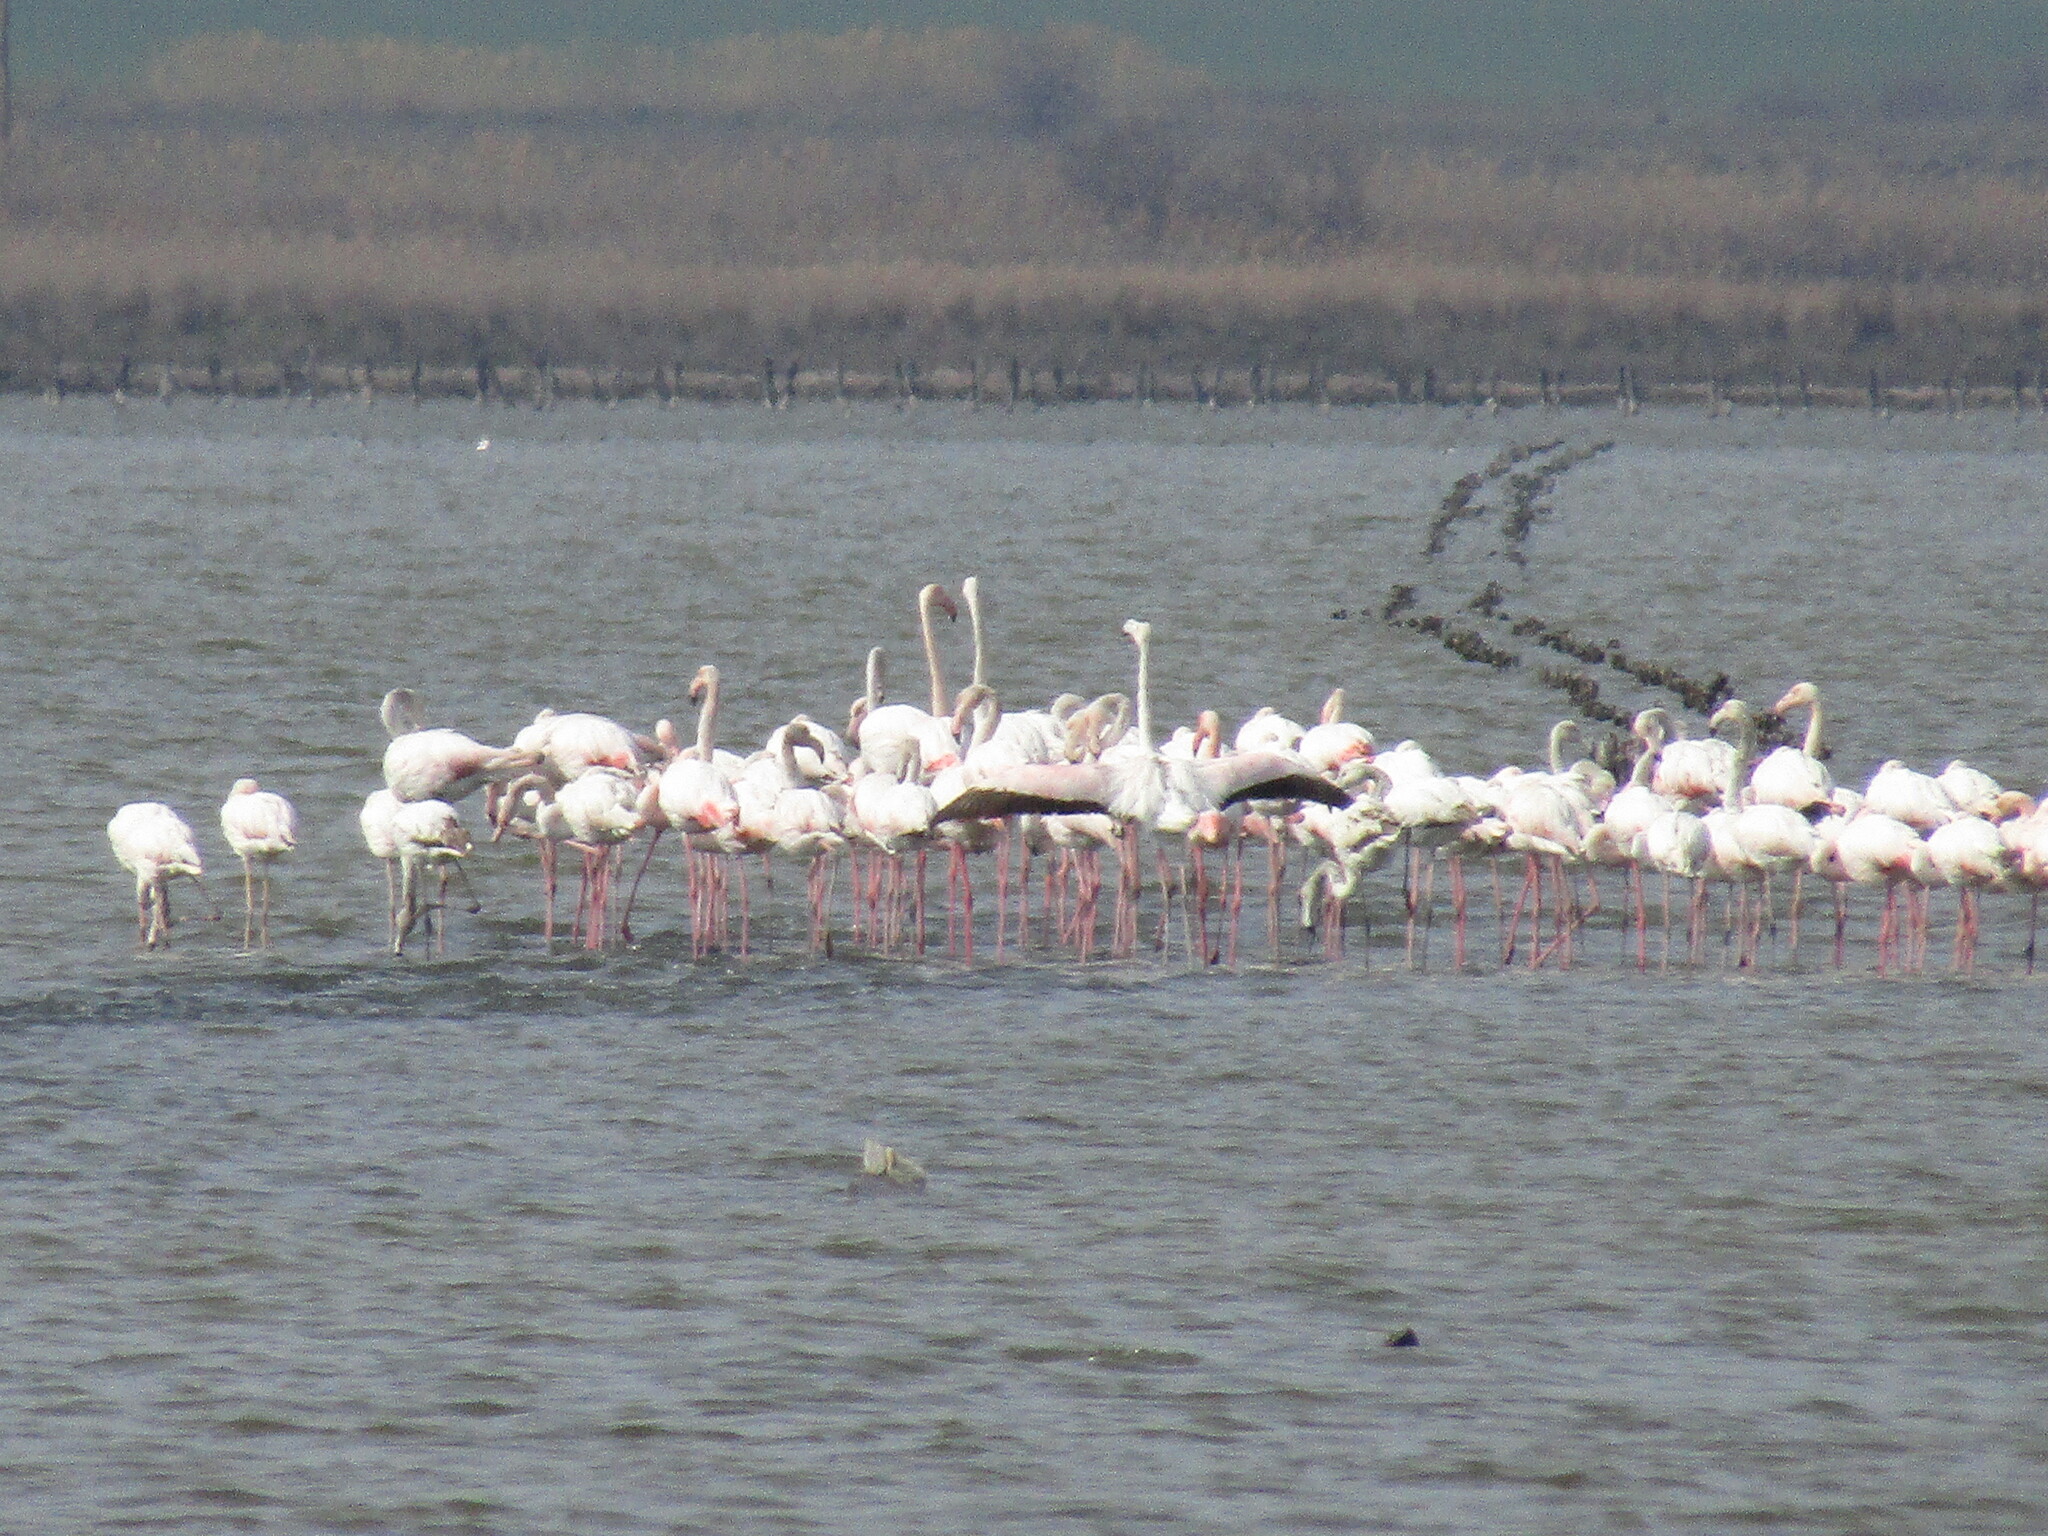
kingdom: Animalia
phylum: Chordata
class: Aves
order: Phoenicopteriformes
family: Phoenicopteridae
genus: Phoenicopterus
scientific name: Phoenicopterus roseus
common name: Greater flamingo
